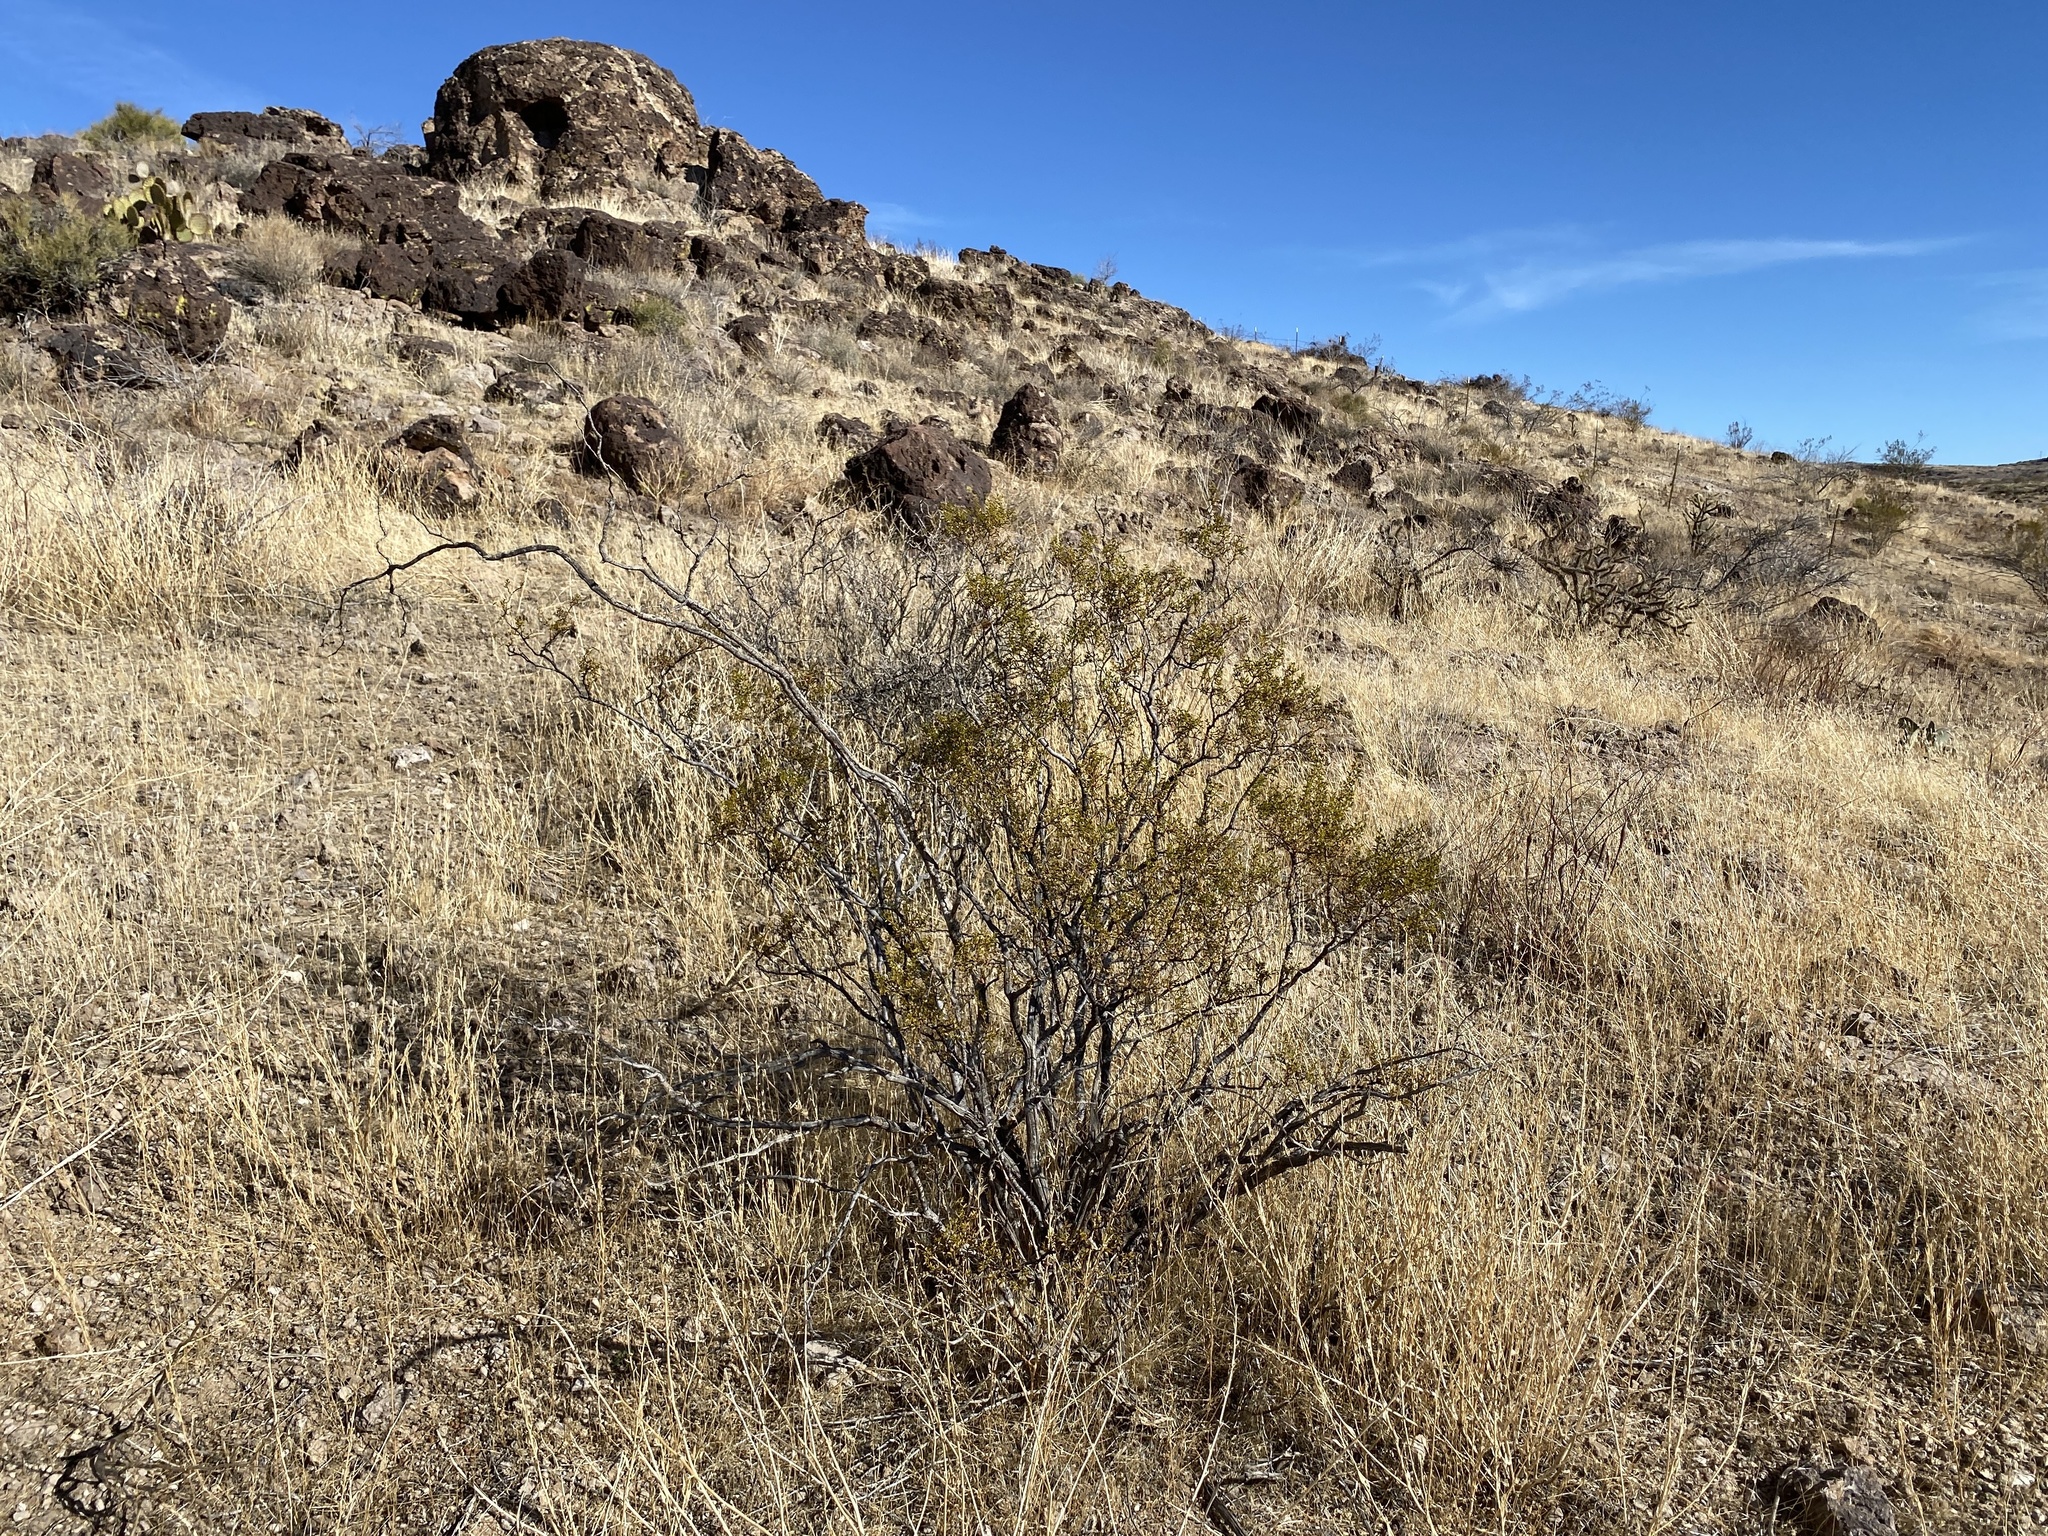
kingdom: Plantae
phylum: Tracheophyta
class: Magnoliopsida
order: Zygophyllales
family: Zygophyllaceae
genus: Larrea
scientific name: Larrea tridentata
